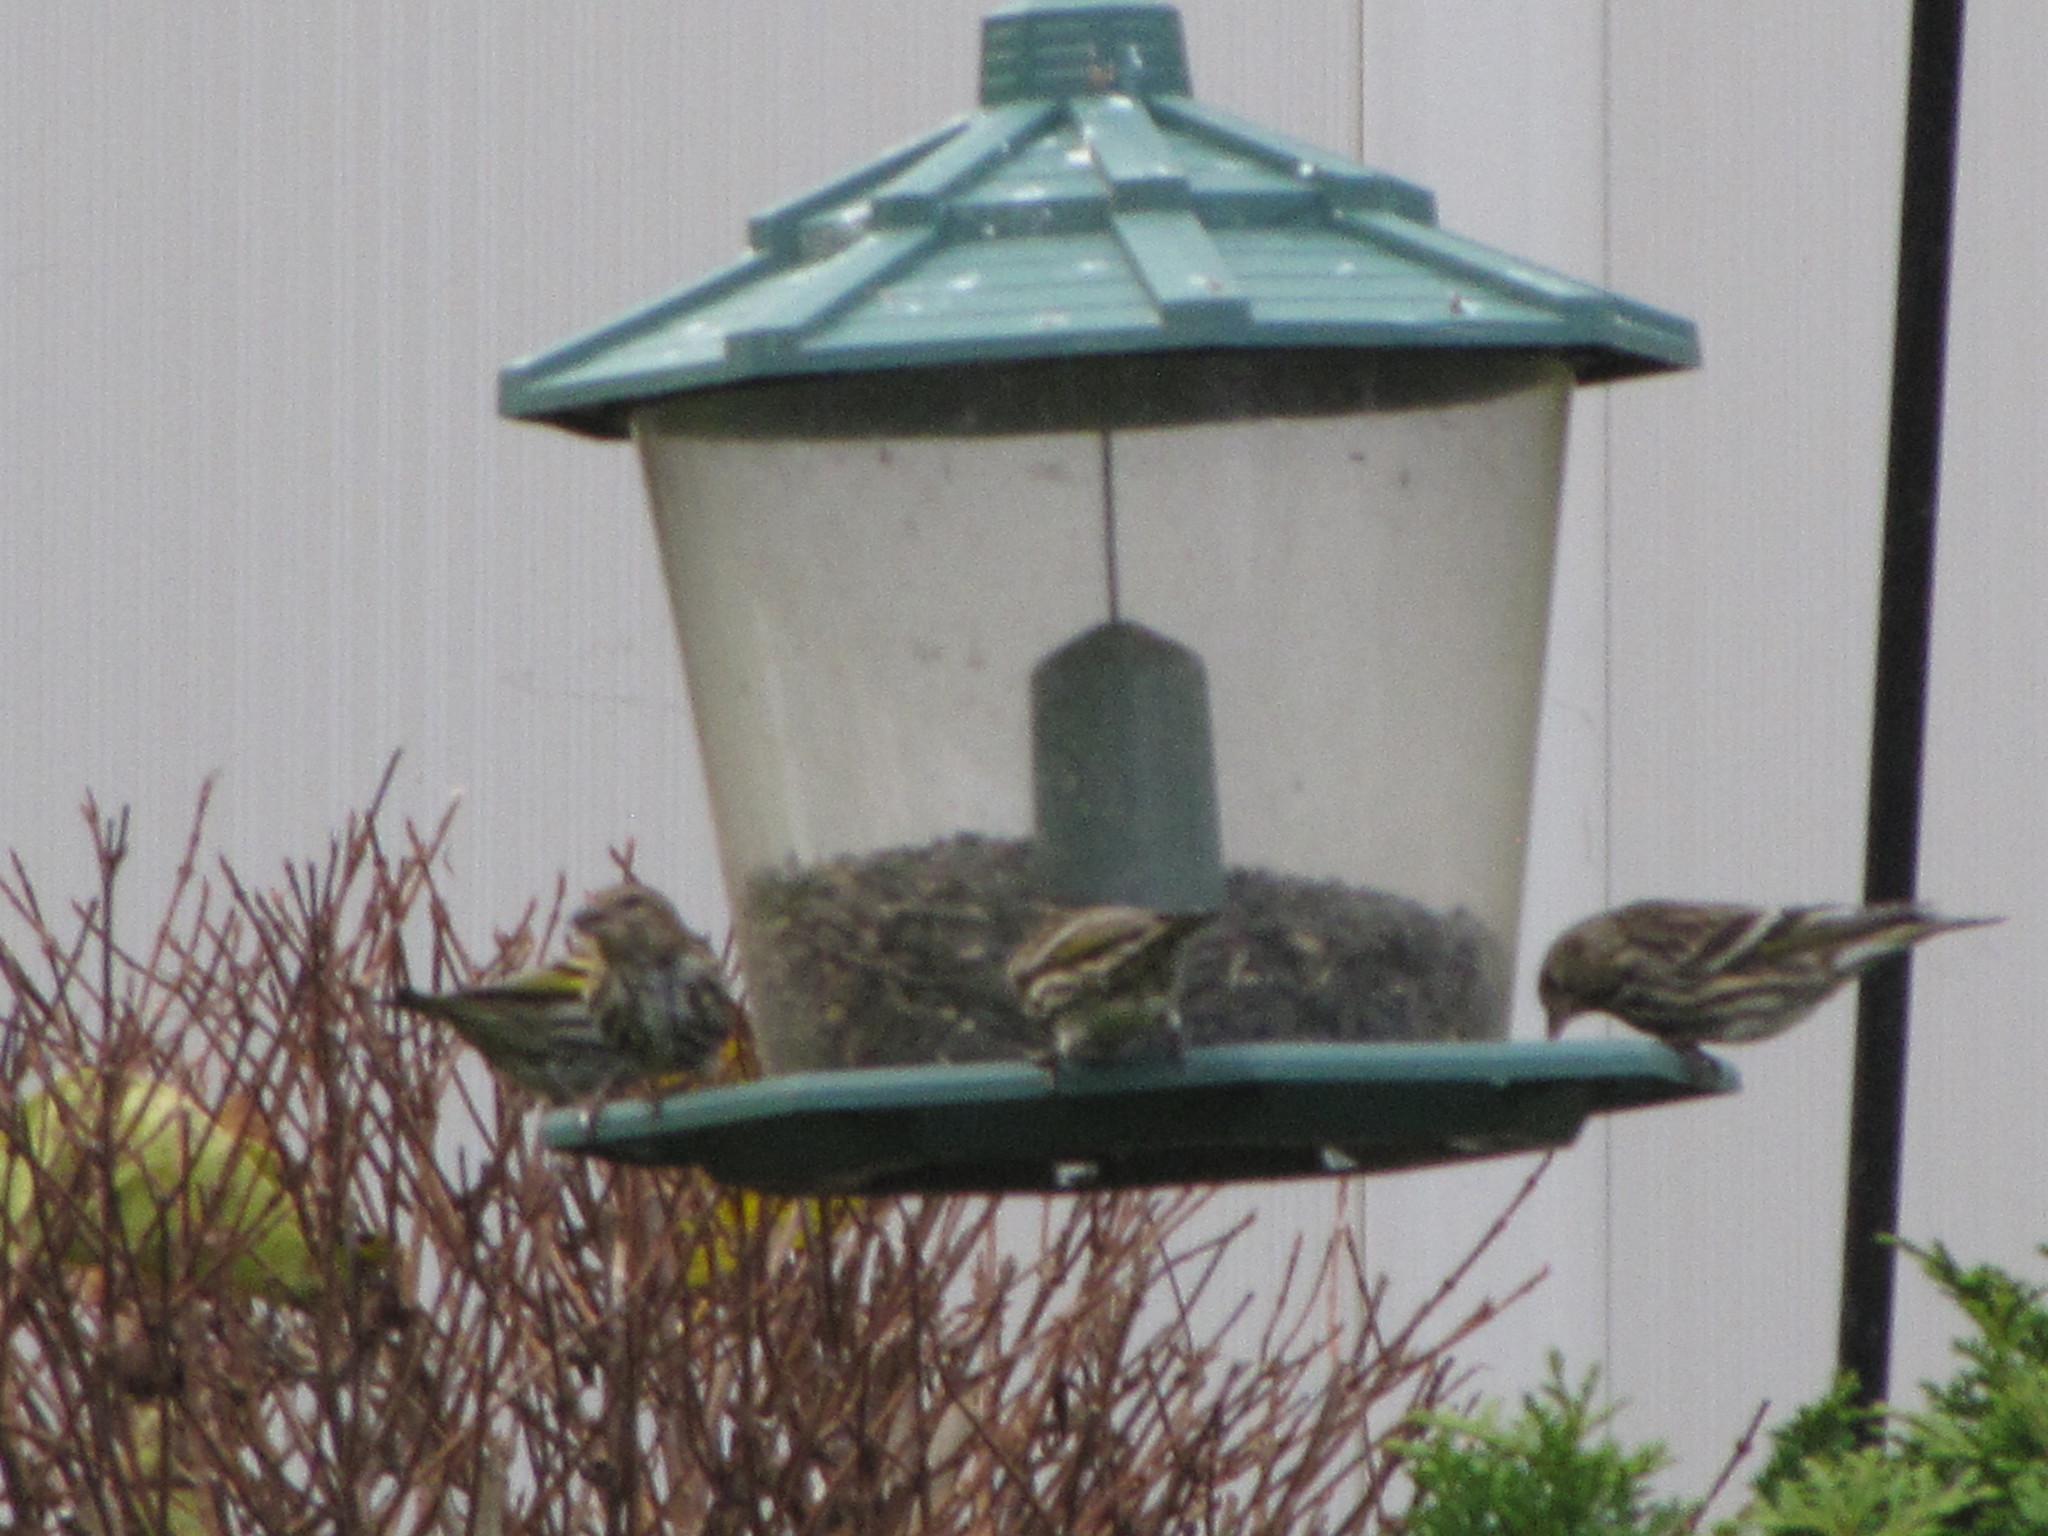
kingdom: Animalia
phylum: Chordata
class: Aves
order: Passeriformes
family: Fringillidae
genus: Spinus
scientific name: Spinus pinus
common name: Pine siskin
